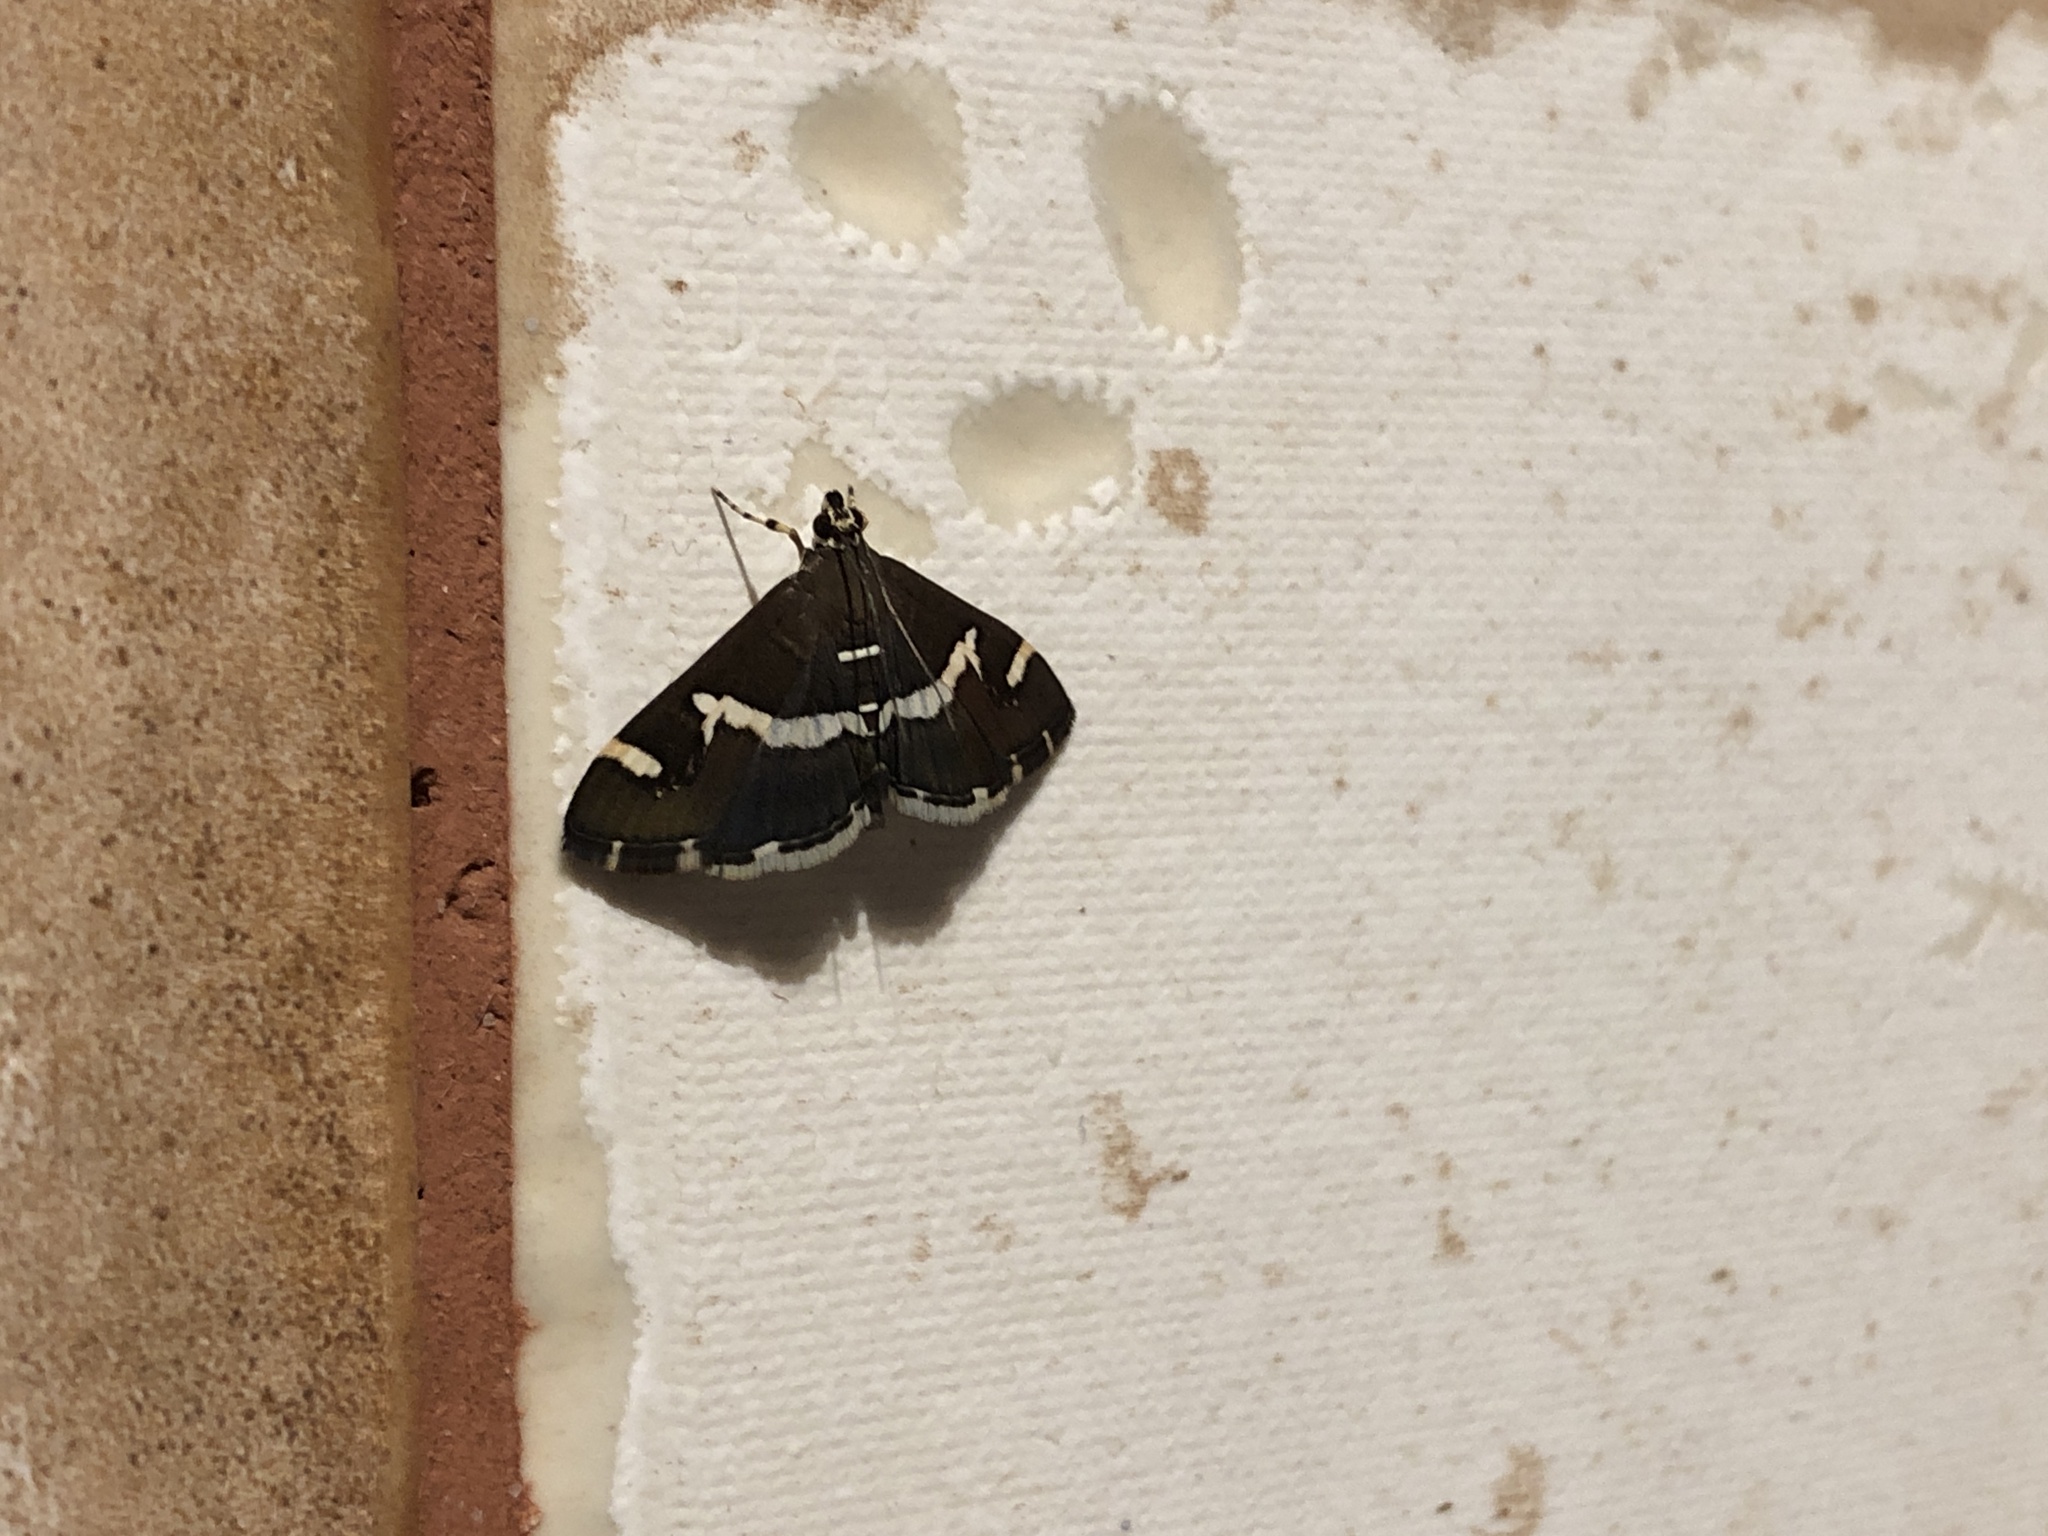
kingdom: Animalia
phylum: Arthropoda
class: Insecta
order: Lepidoptera
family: Crambidae
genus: Spoladea
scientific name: Spoladea recurvalis
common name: Beet webworm moth
